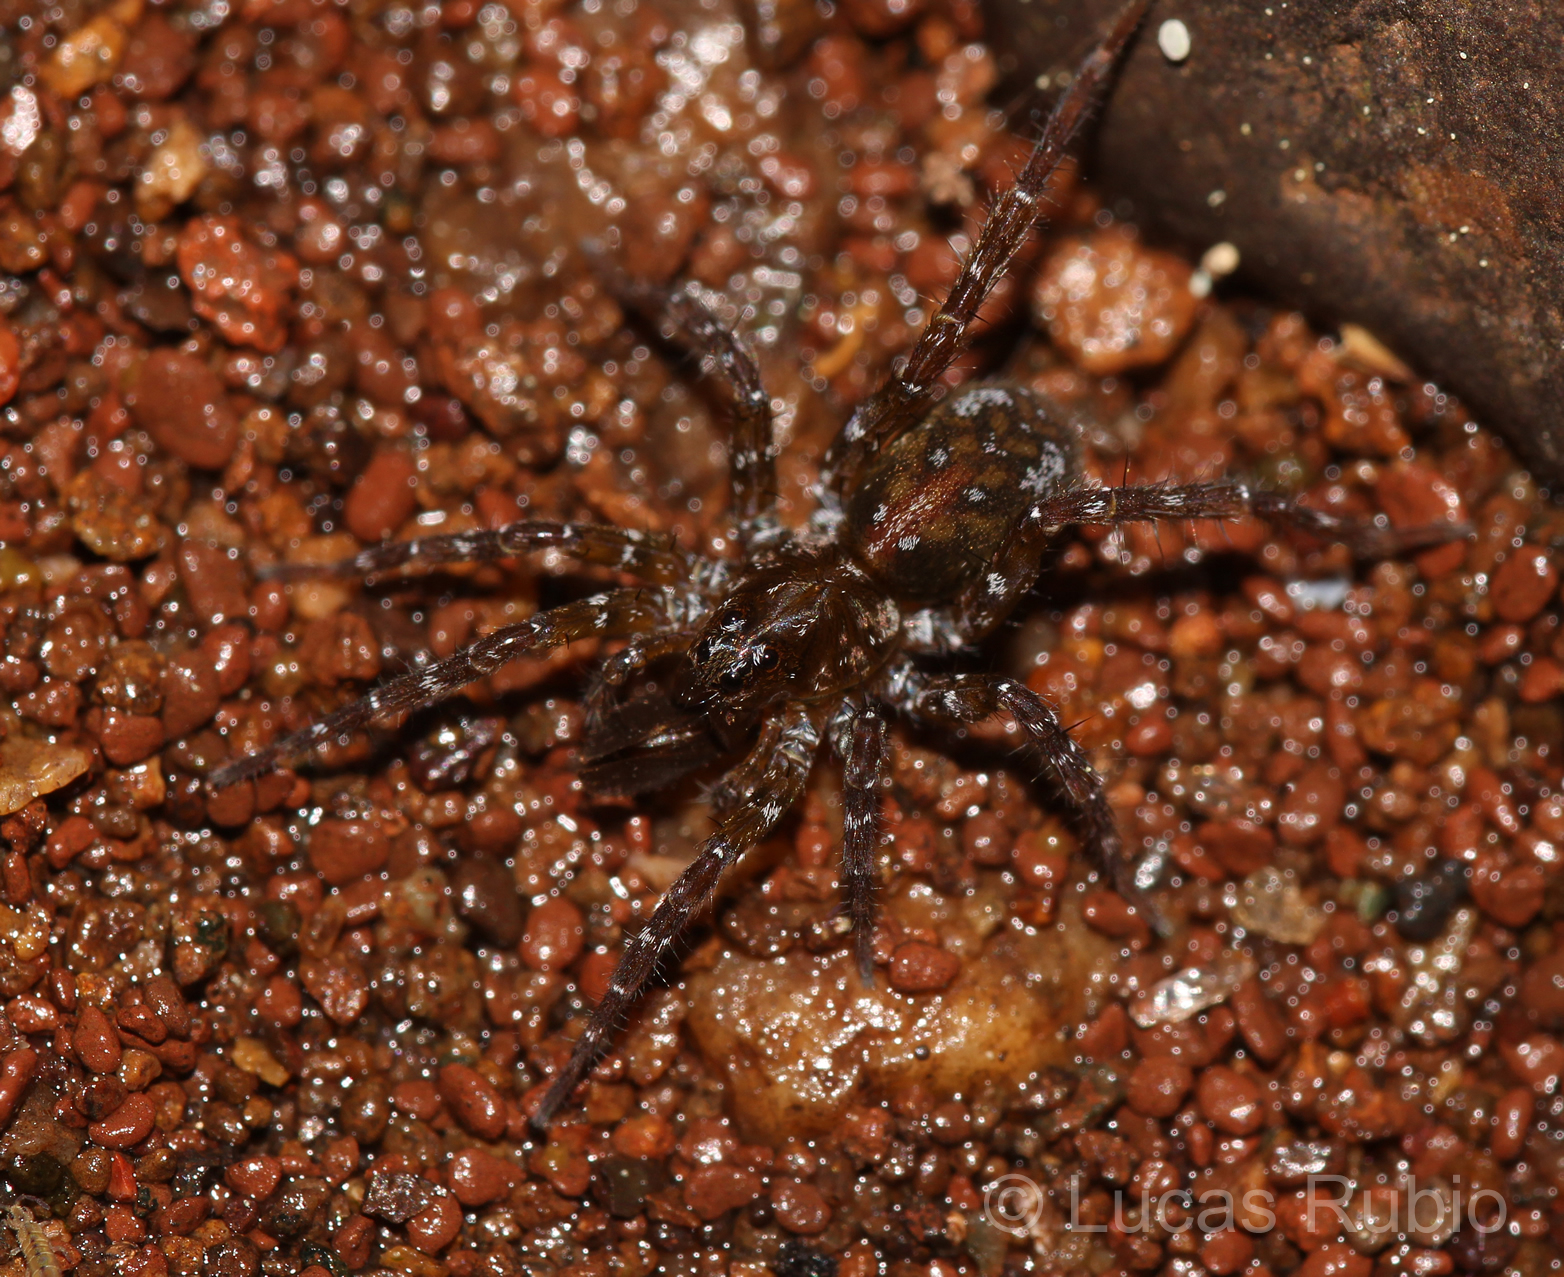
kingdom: Animalia
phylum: Arthropoda
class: Arachnida
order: Araneae
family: Lycosidae
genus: Arctosa
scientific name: Arctosa sapiranga
